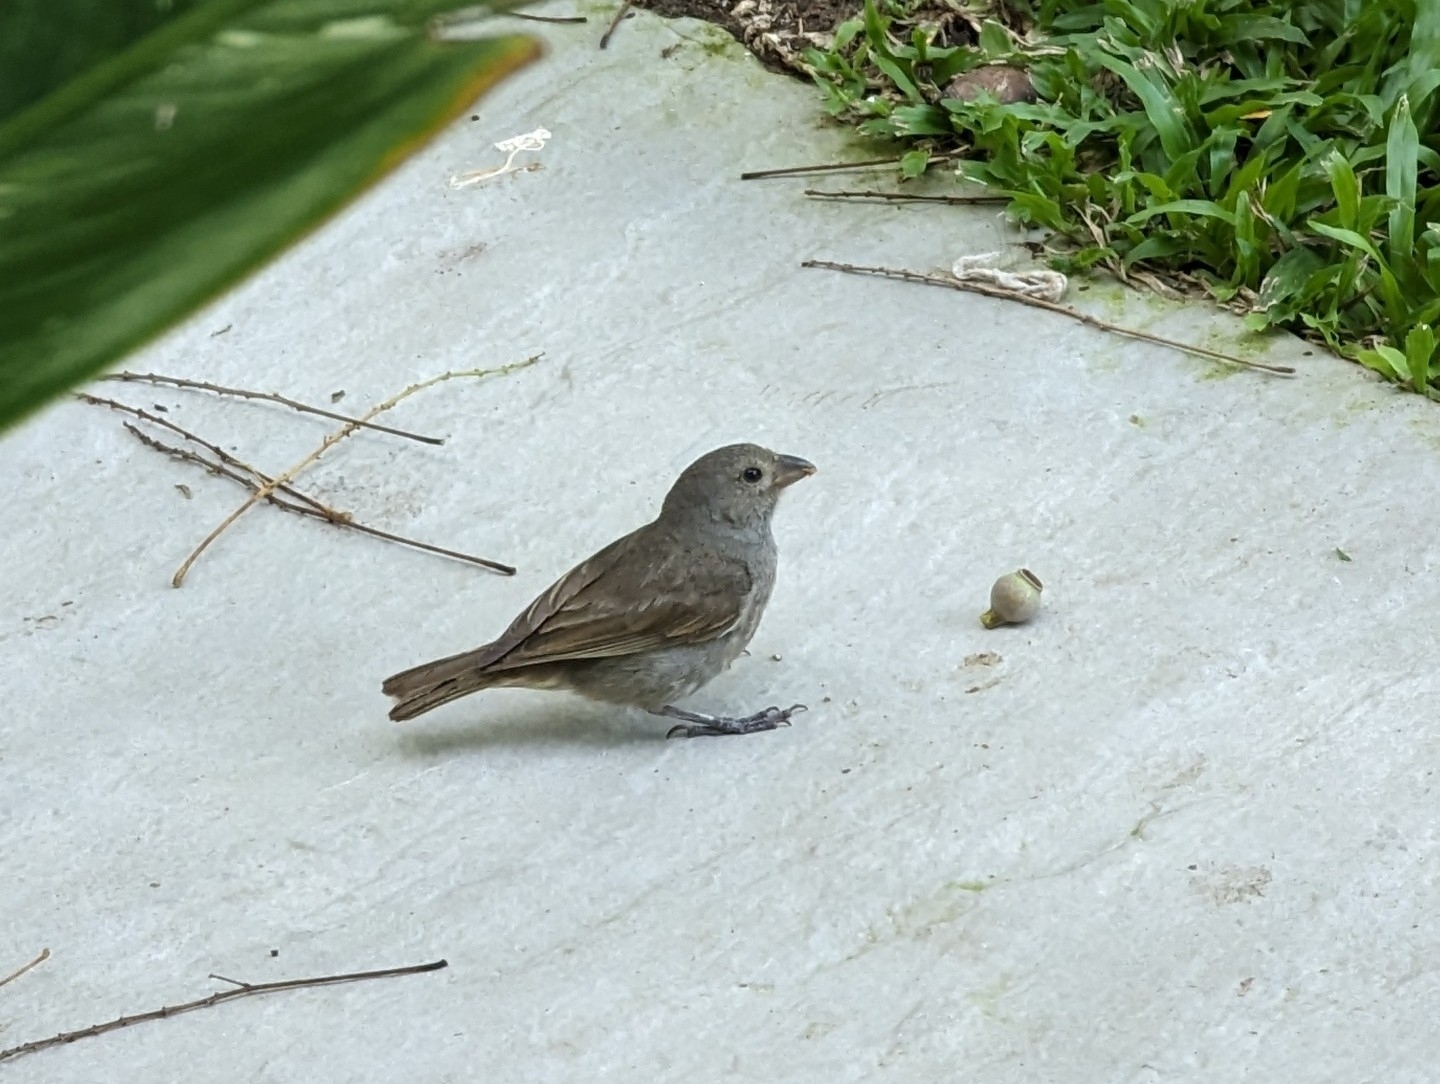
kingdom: Animalia
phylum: Chordata
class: Aves
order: Passeriformes
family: Thraupidae
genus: Loxigilla
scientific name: Loxigilla barbadensis
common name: Barbados bullfinch
